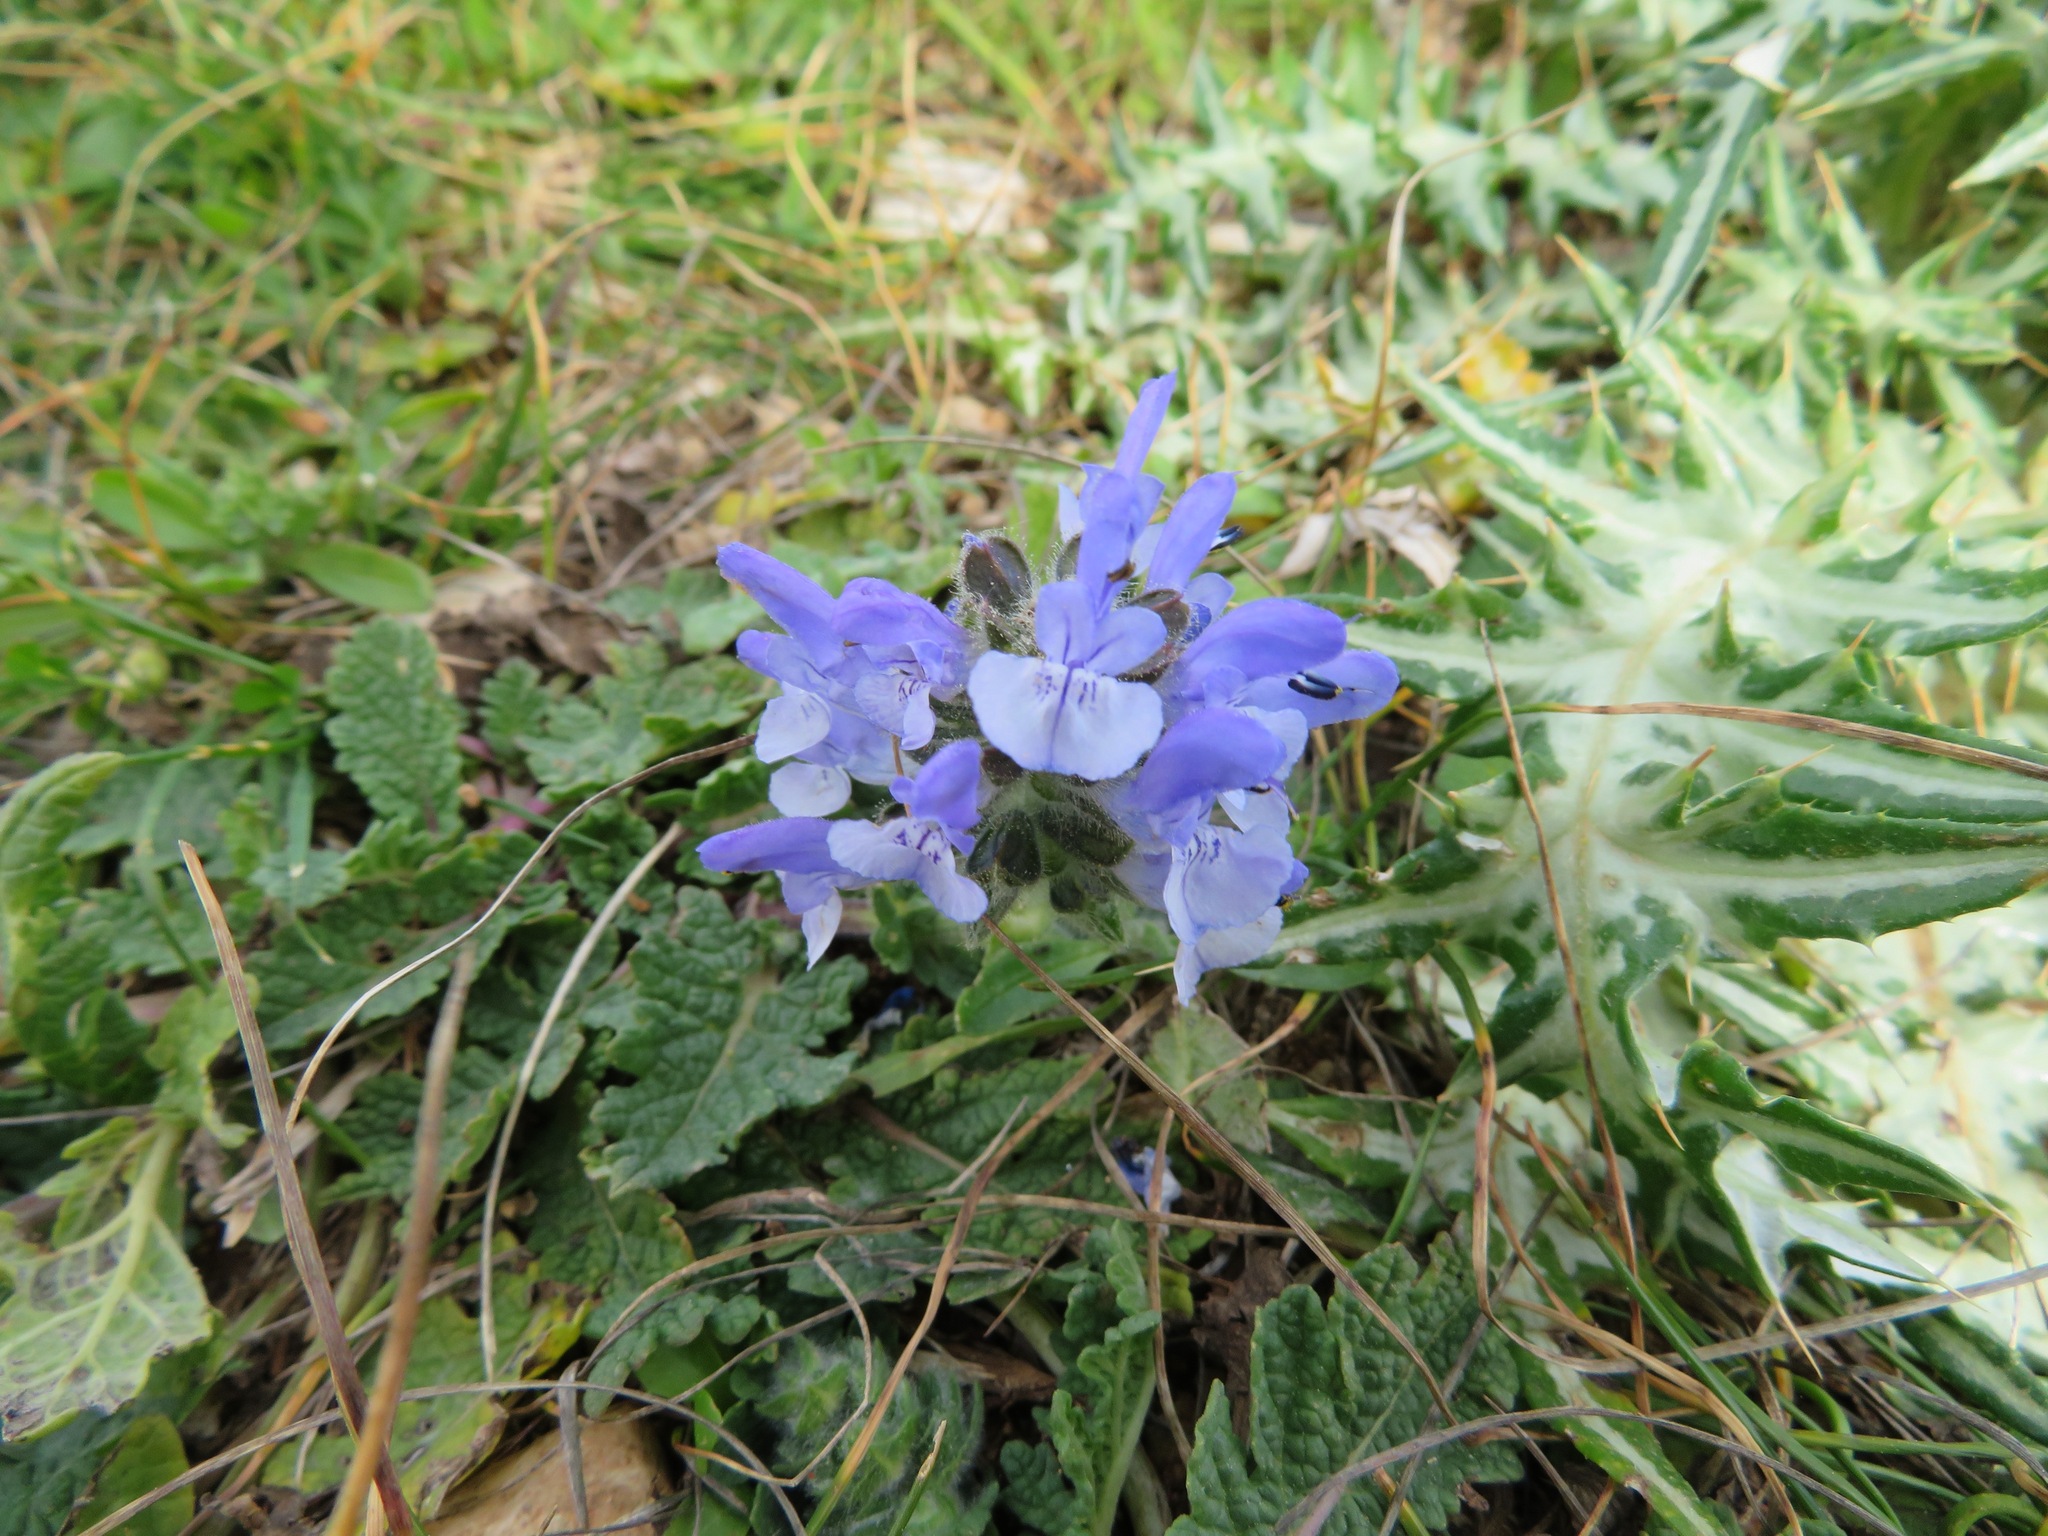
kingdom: Plantae
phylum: Tracheophyta
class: Magnoliopsida
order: Lamiales
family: Lamiaceae
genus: Salvia
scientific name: Salvia clandestina
